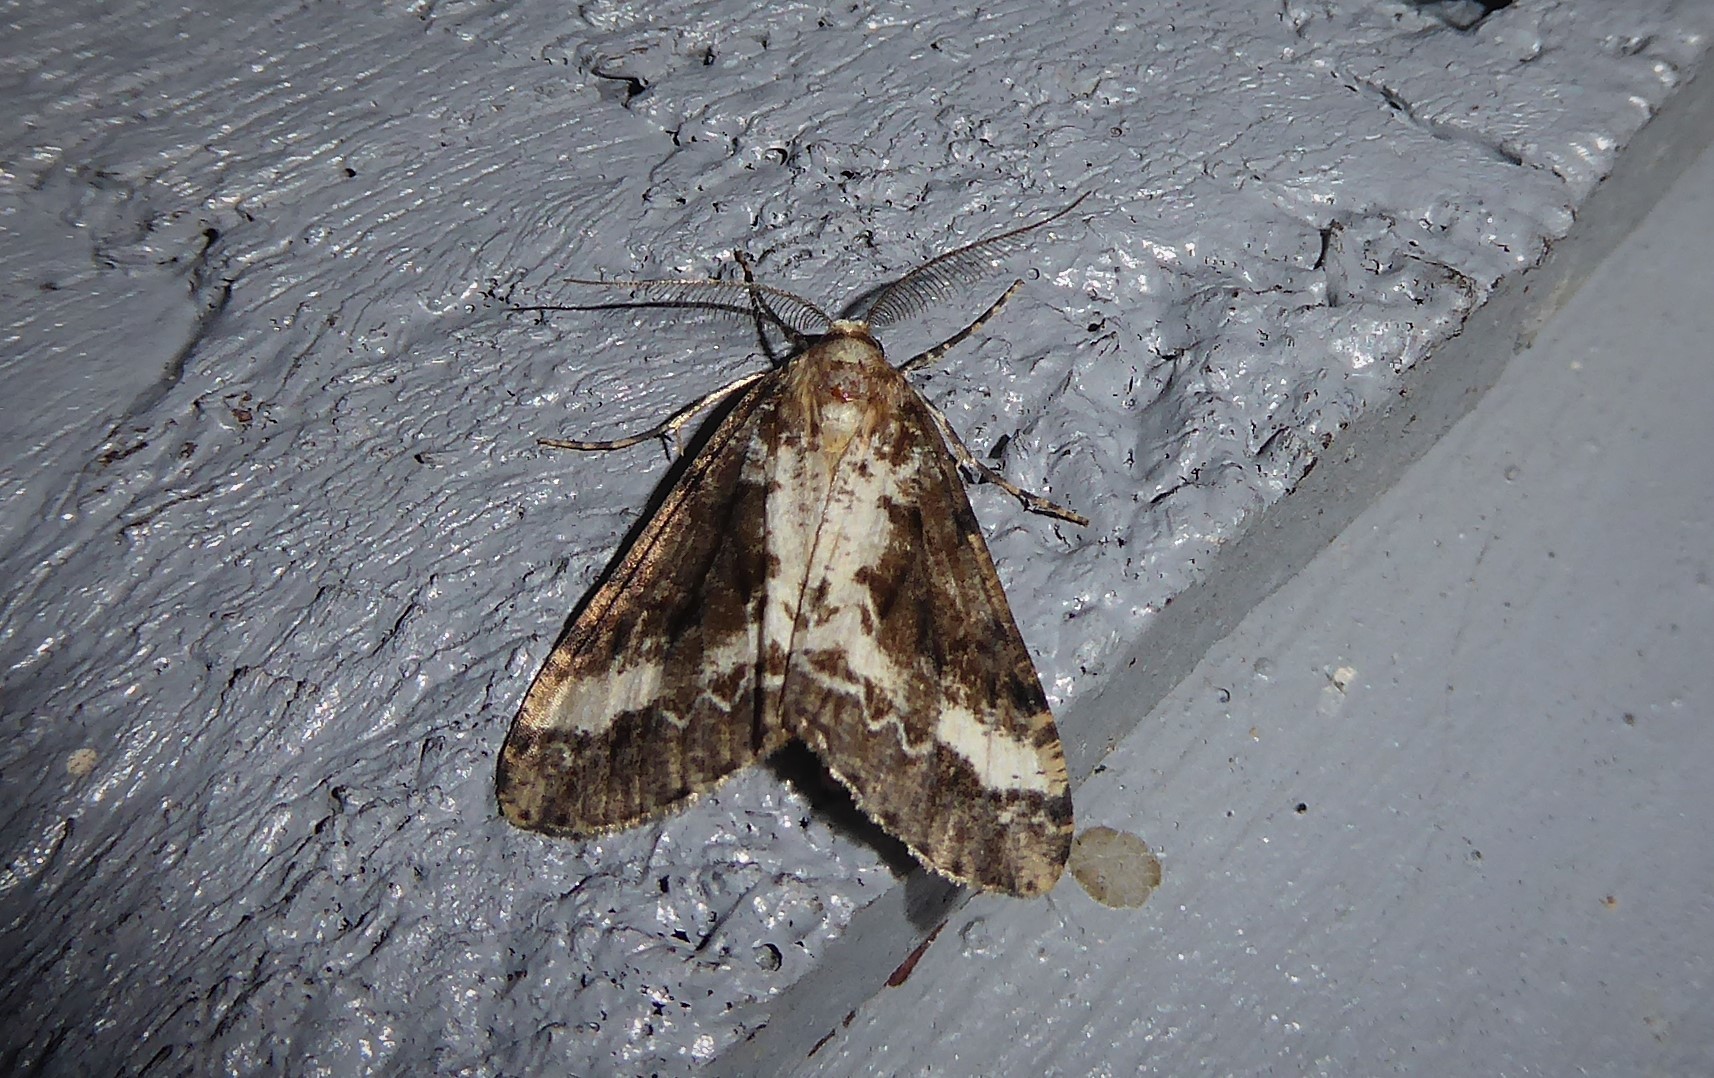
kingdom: Animalia
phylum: Arthropoda
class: Insecta
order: Lepidoptera
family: Geometridae
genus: Pseudocoremia
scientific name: Pseudocoremia leucelaea
